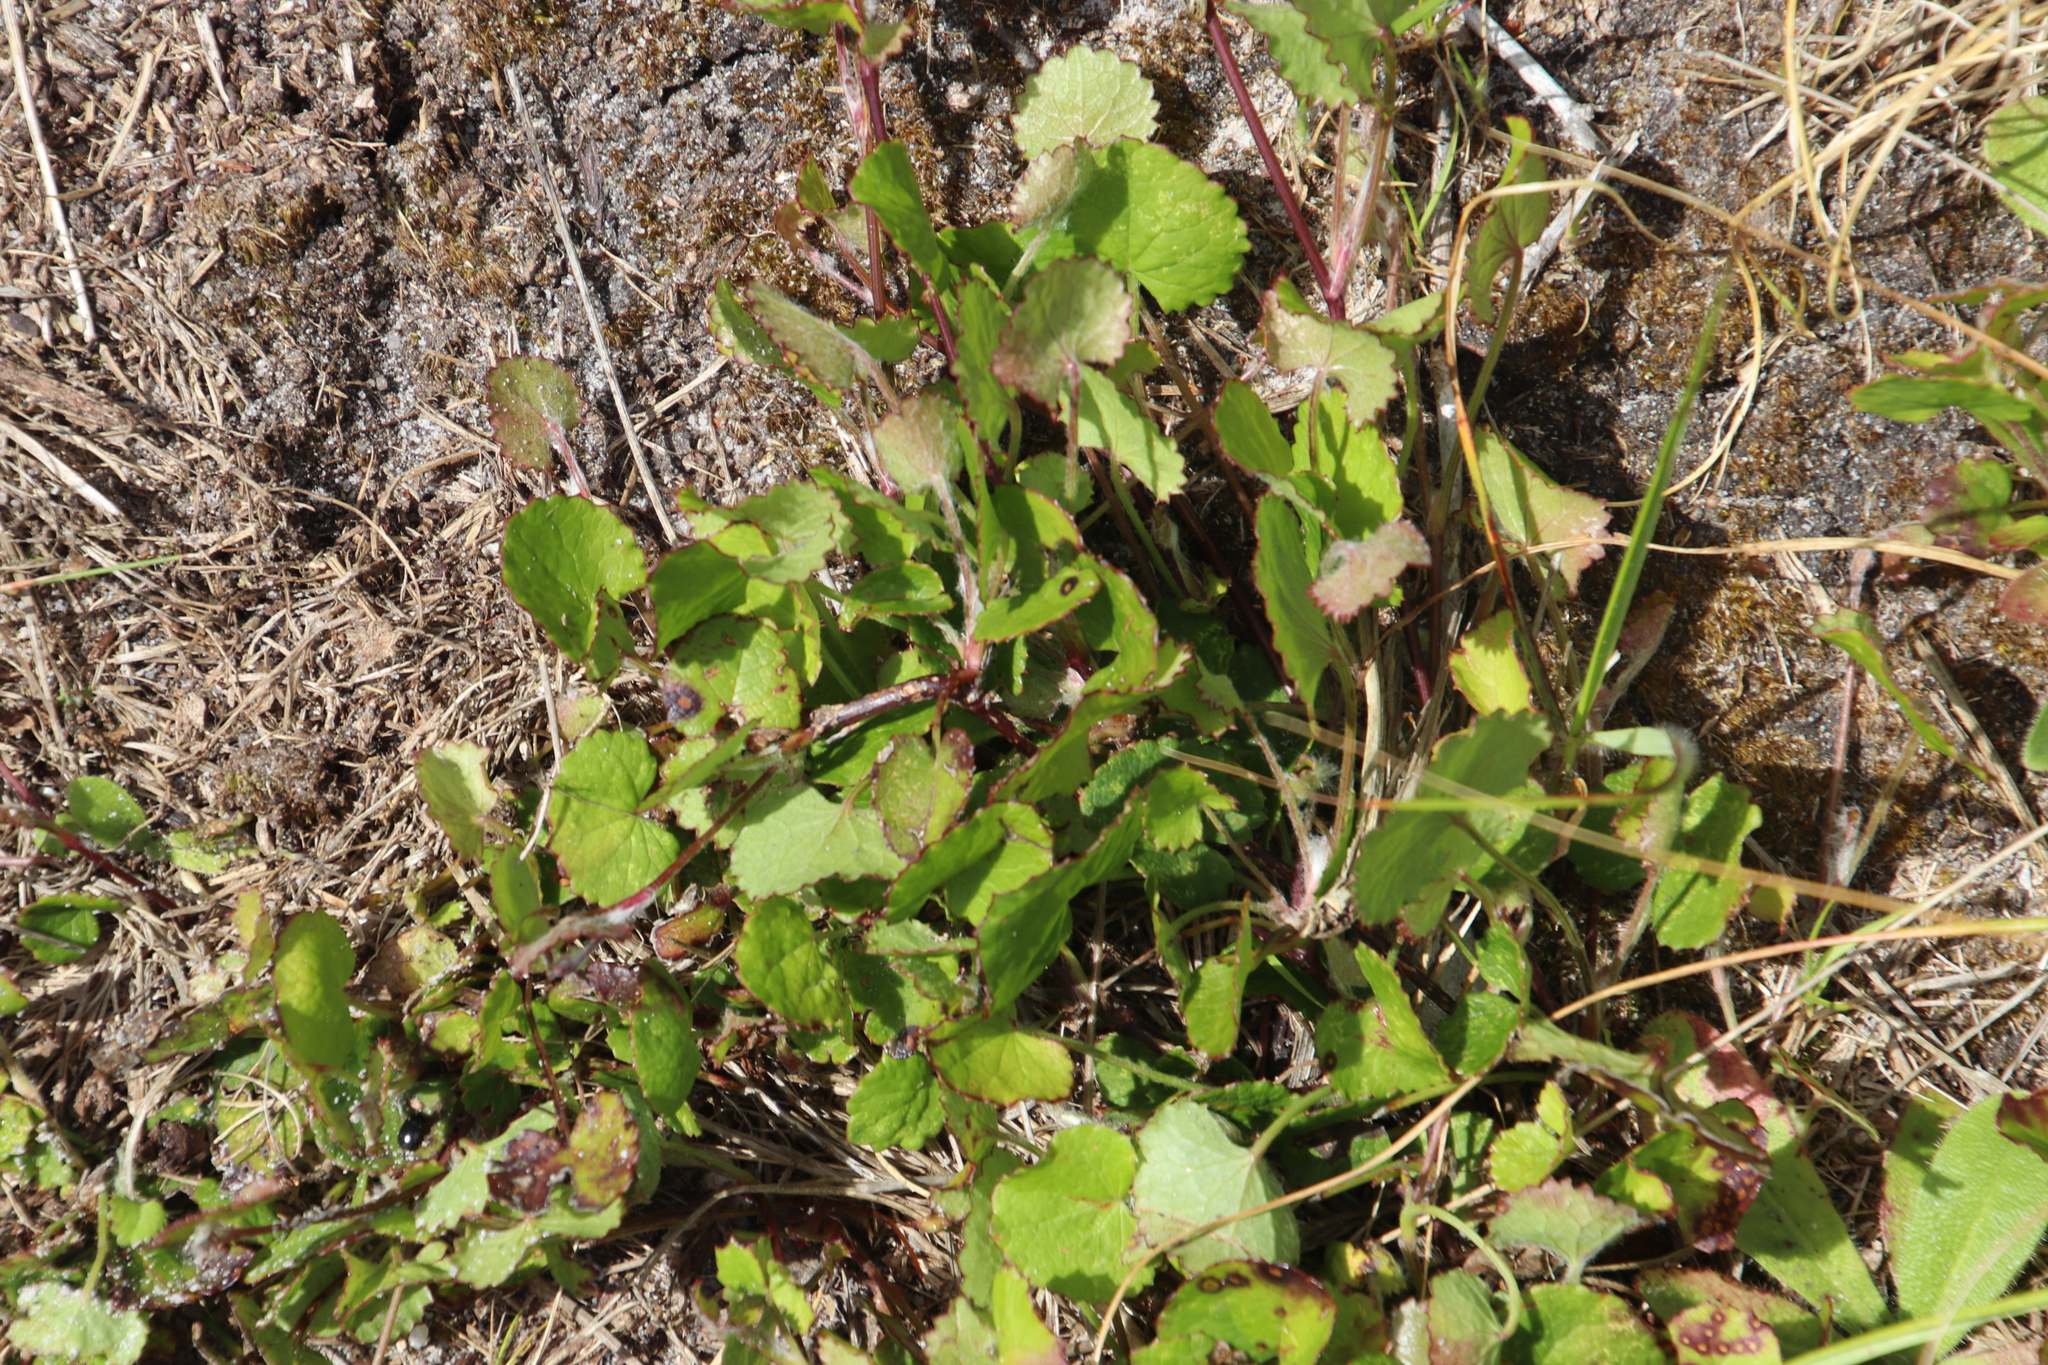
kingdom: Plantae
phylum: Tracheophyta
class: Magnoliopsida
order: Apiales
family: Apiaceae
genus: Centella
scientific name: Centella eriantha
